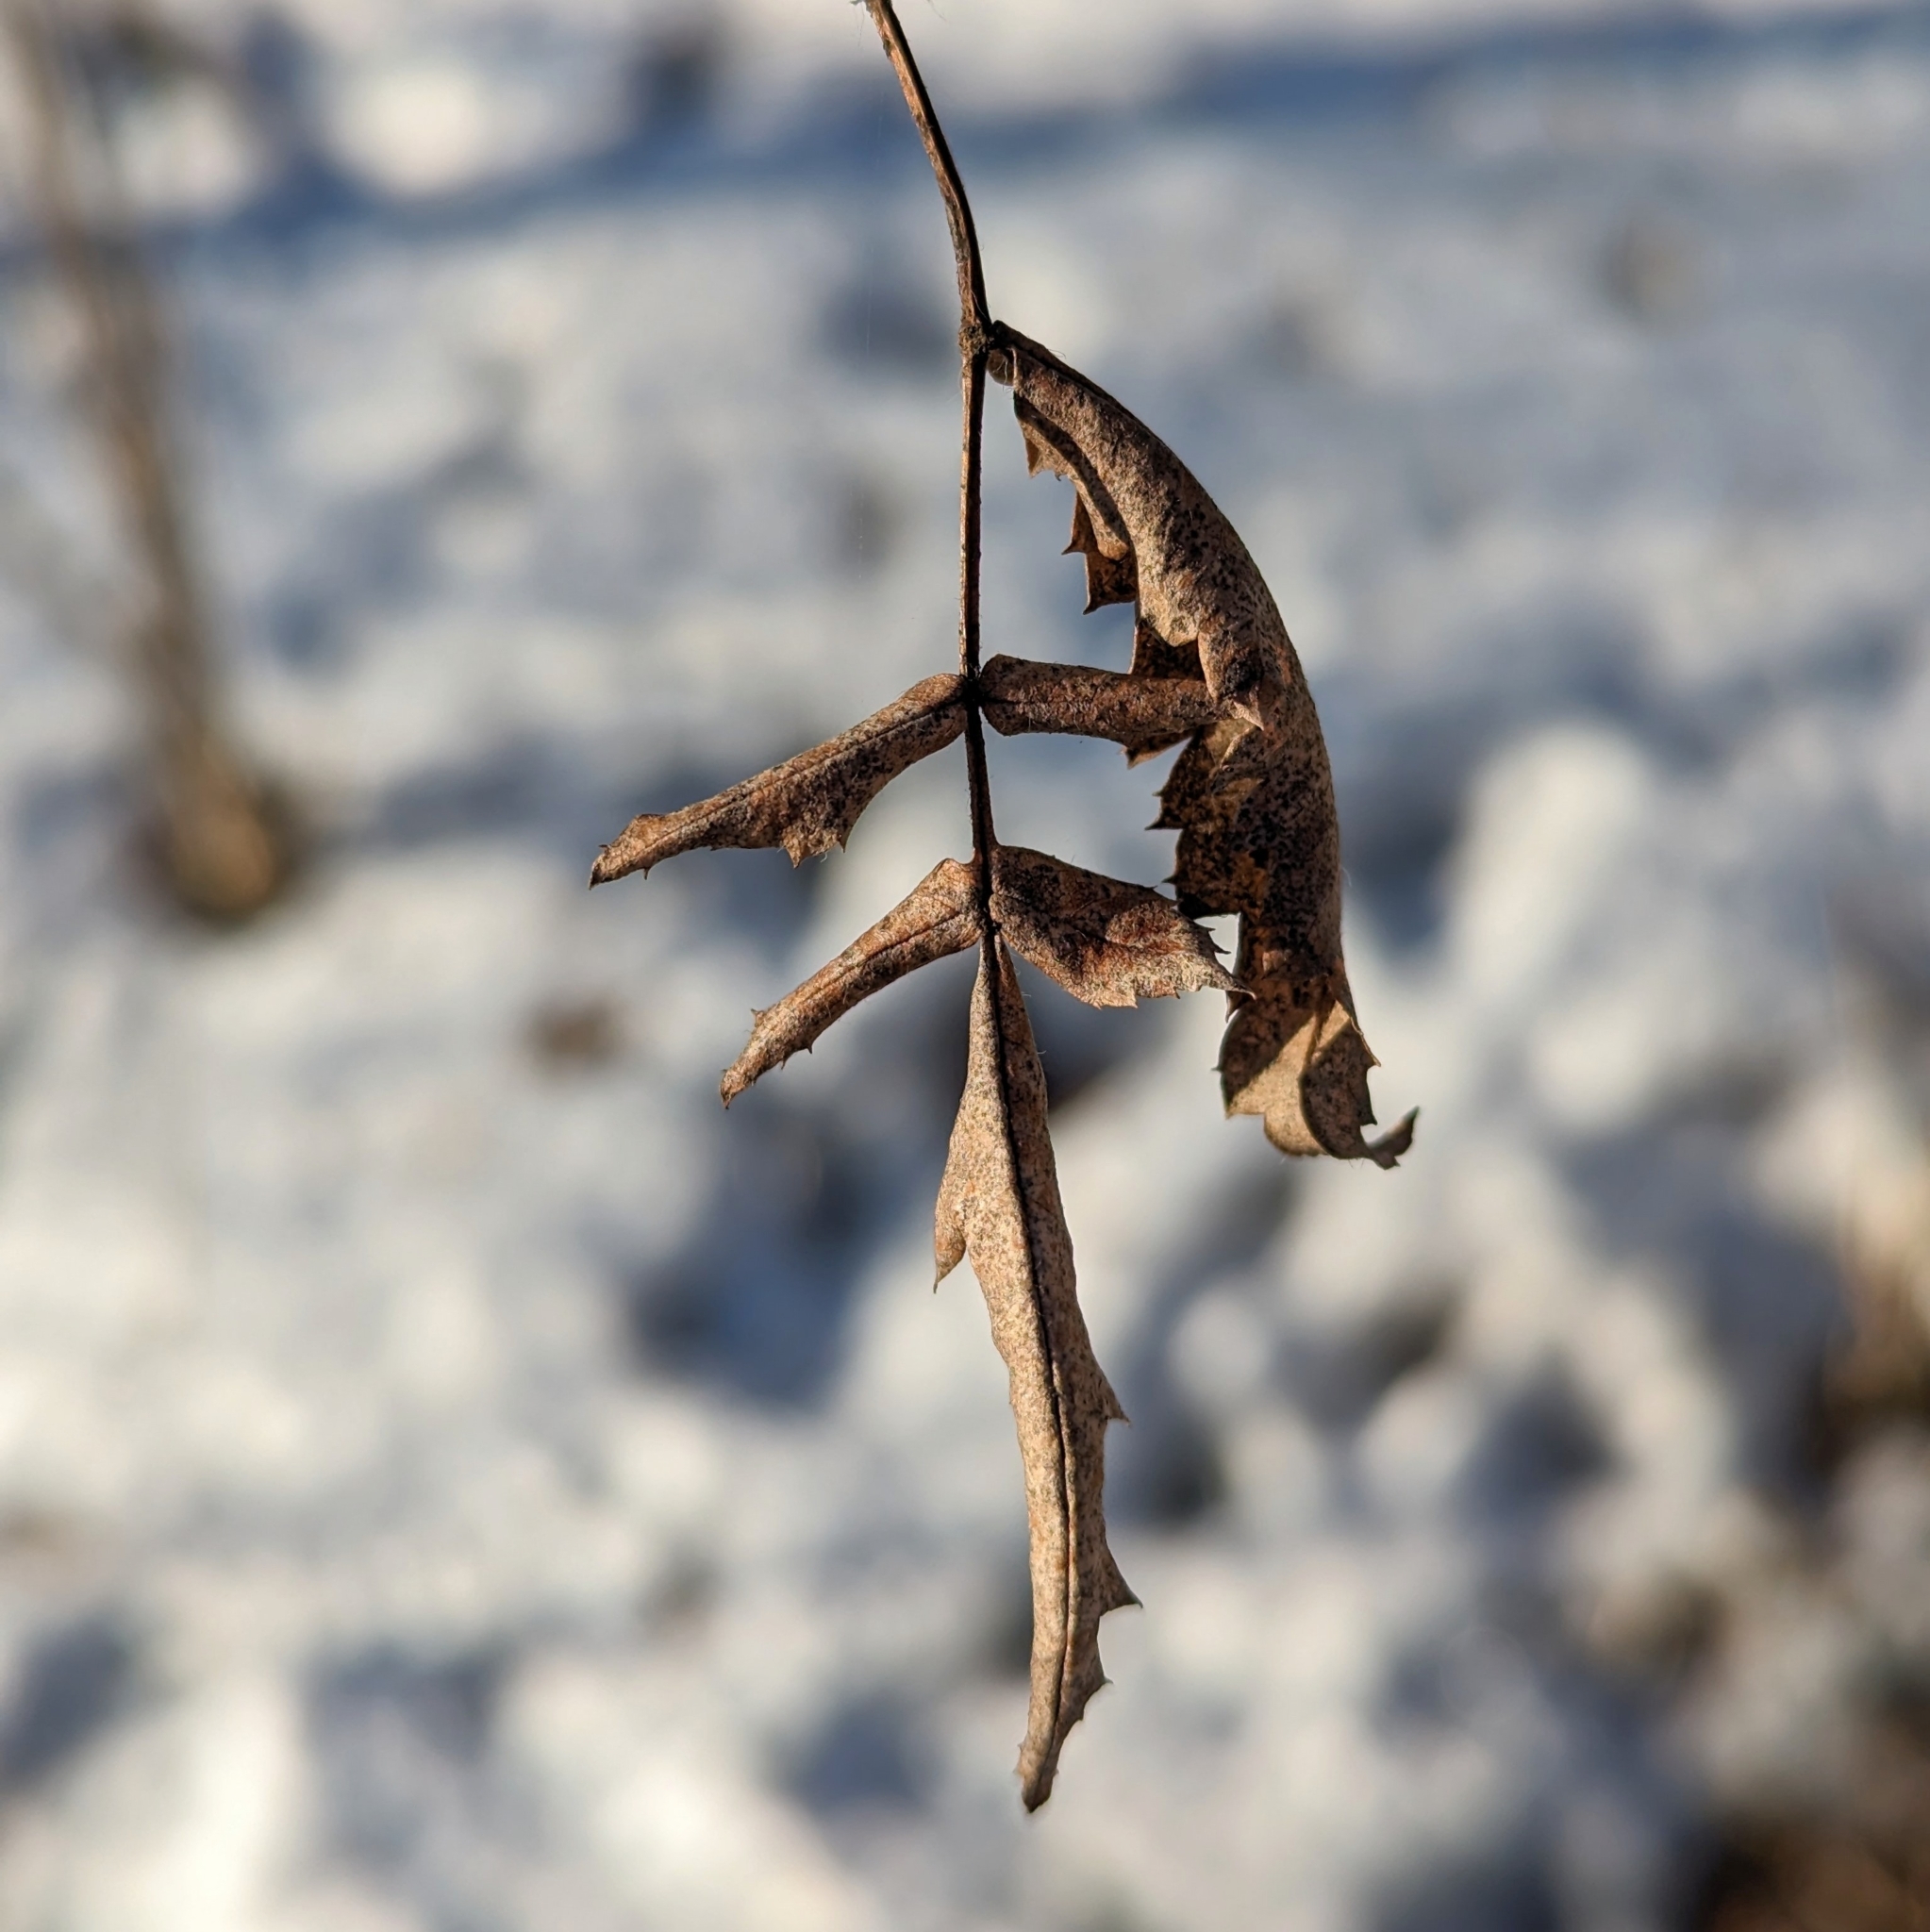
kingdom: Plantae
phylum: Tracheophyta
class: Magnoliopsida
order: Rosales
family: Rosaceae
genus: Sorbus
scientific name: Sorbus aucuparia
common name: Rowan
